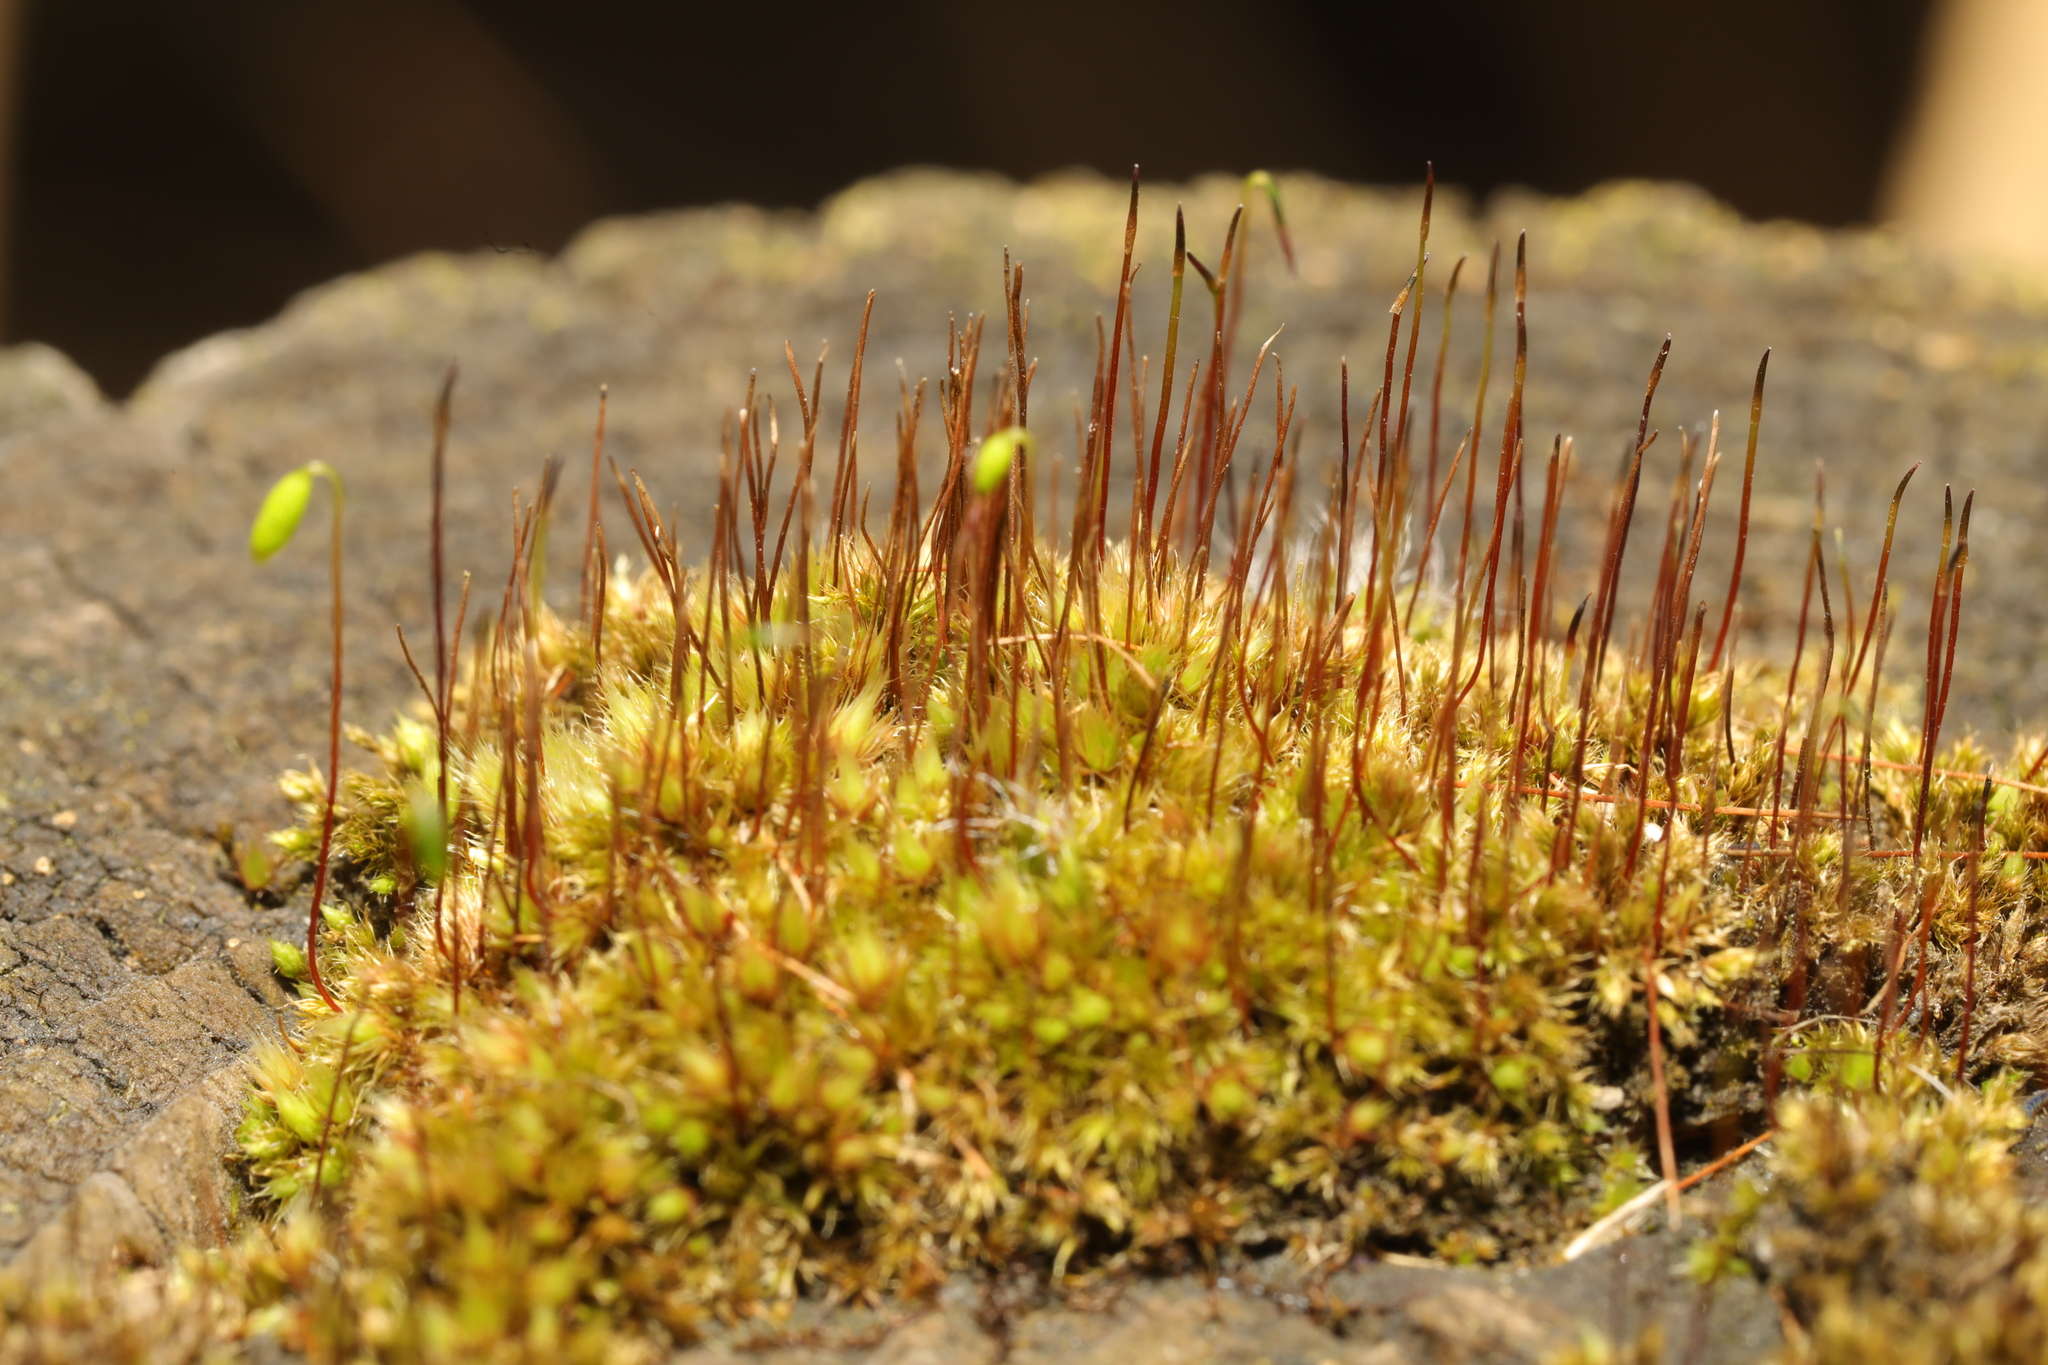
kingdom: Plantae
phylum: Bryophyta
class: Bryopsida
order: Bryales
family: Bryaceae
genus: Gemmabryum
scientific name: Gemmabryum caespiticium
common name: Handbell moss
